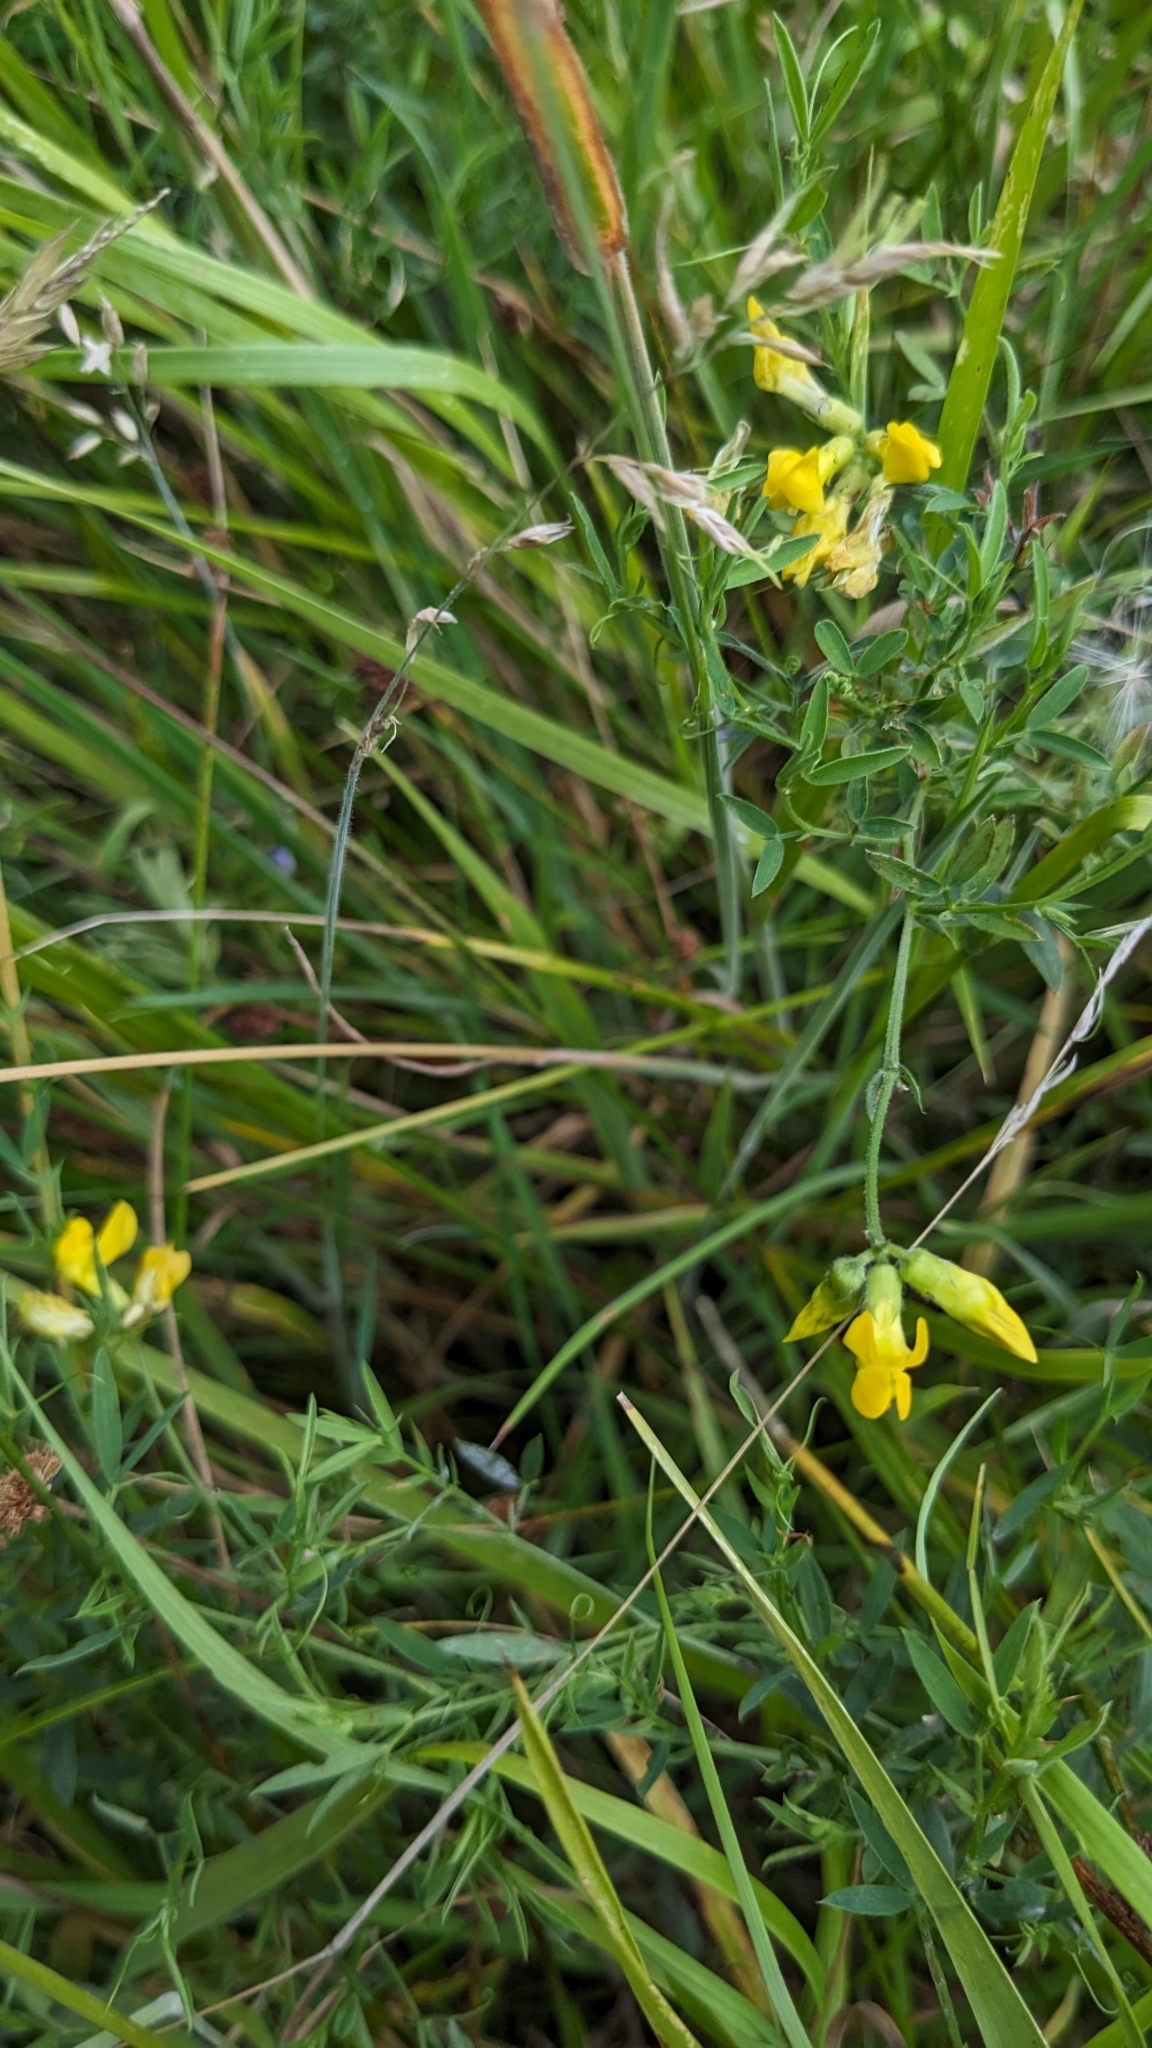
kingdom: Plantae
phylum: Tracheophyta
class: Magnoliopsida
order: Fabales
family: Fabaceae
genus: Lathyrus
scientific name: Lathyrus pratensis
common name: Meadow vetchling
